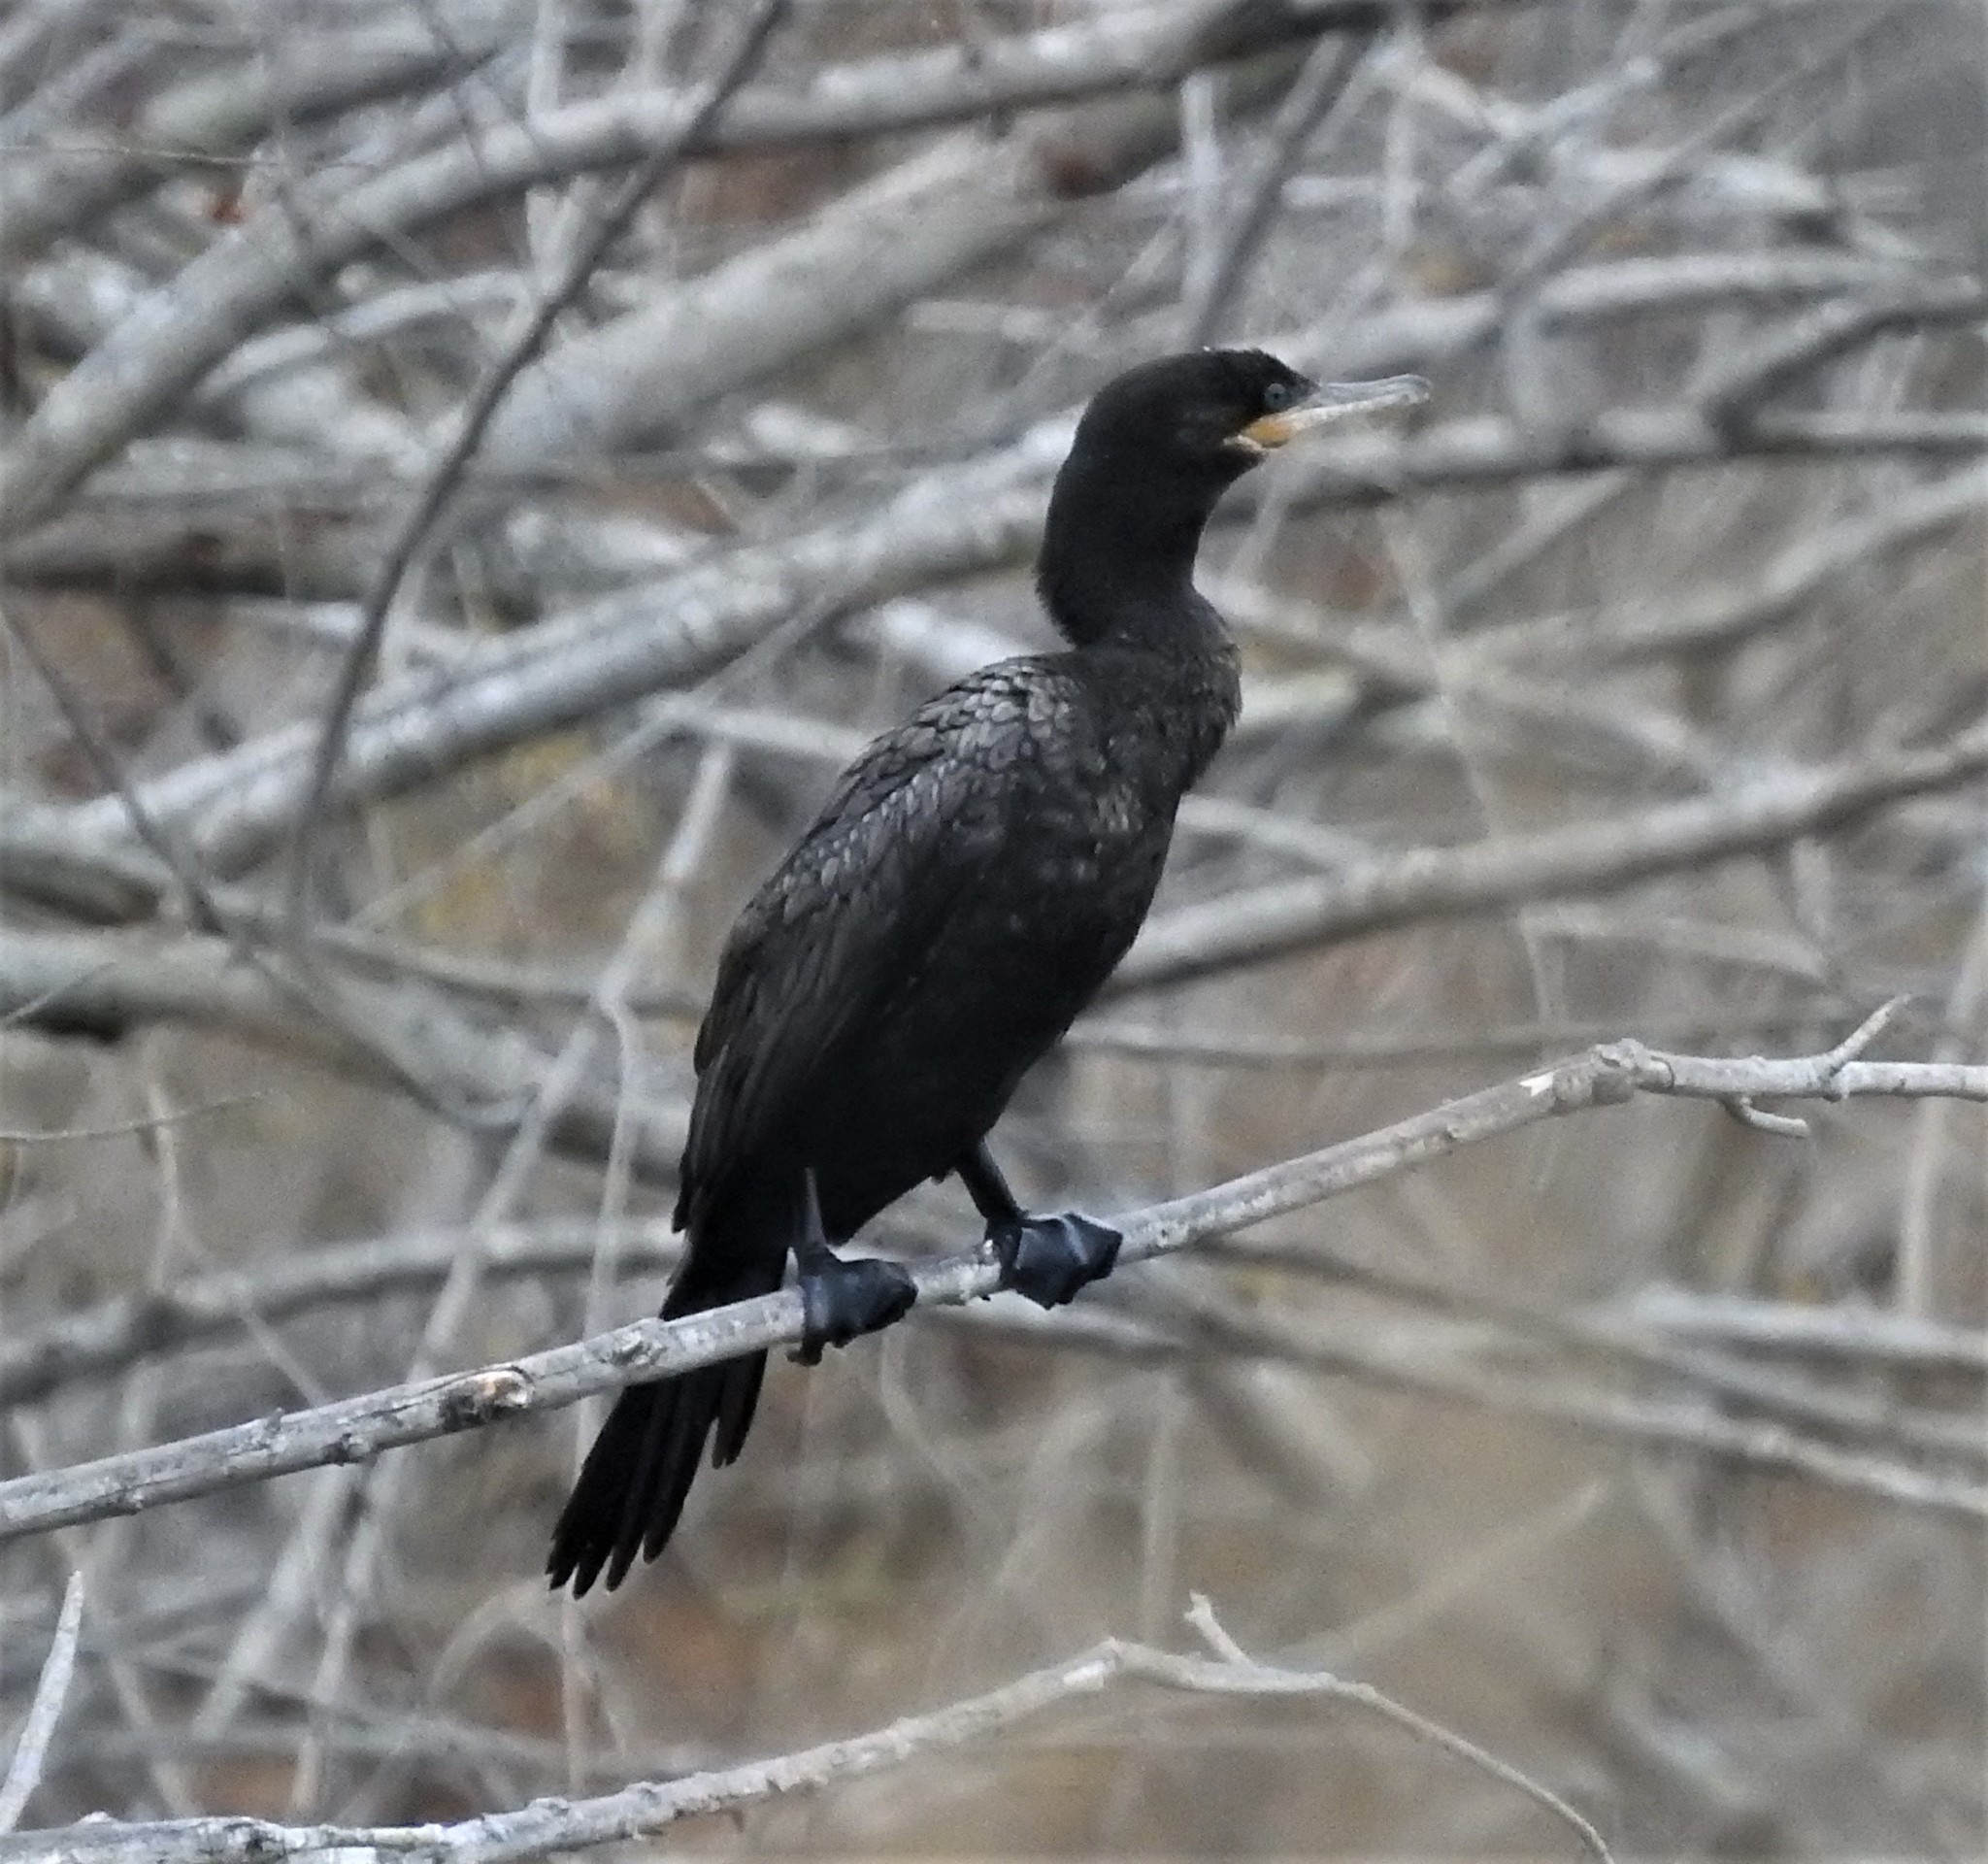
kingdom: Animalia
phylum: Chordata
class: Aves
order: Suliformes
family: Phalacrocoracidae
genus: Phalacrocorax
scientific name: Phalacrocorax brasilianus
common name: Neotropic cormorant
